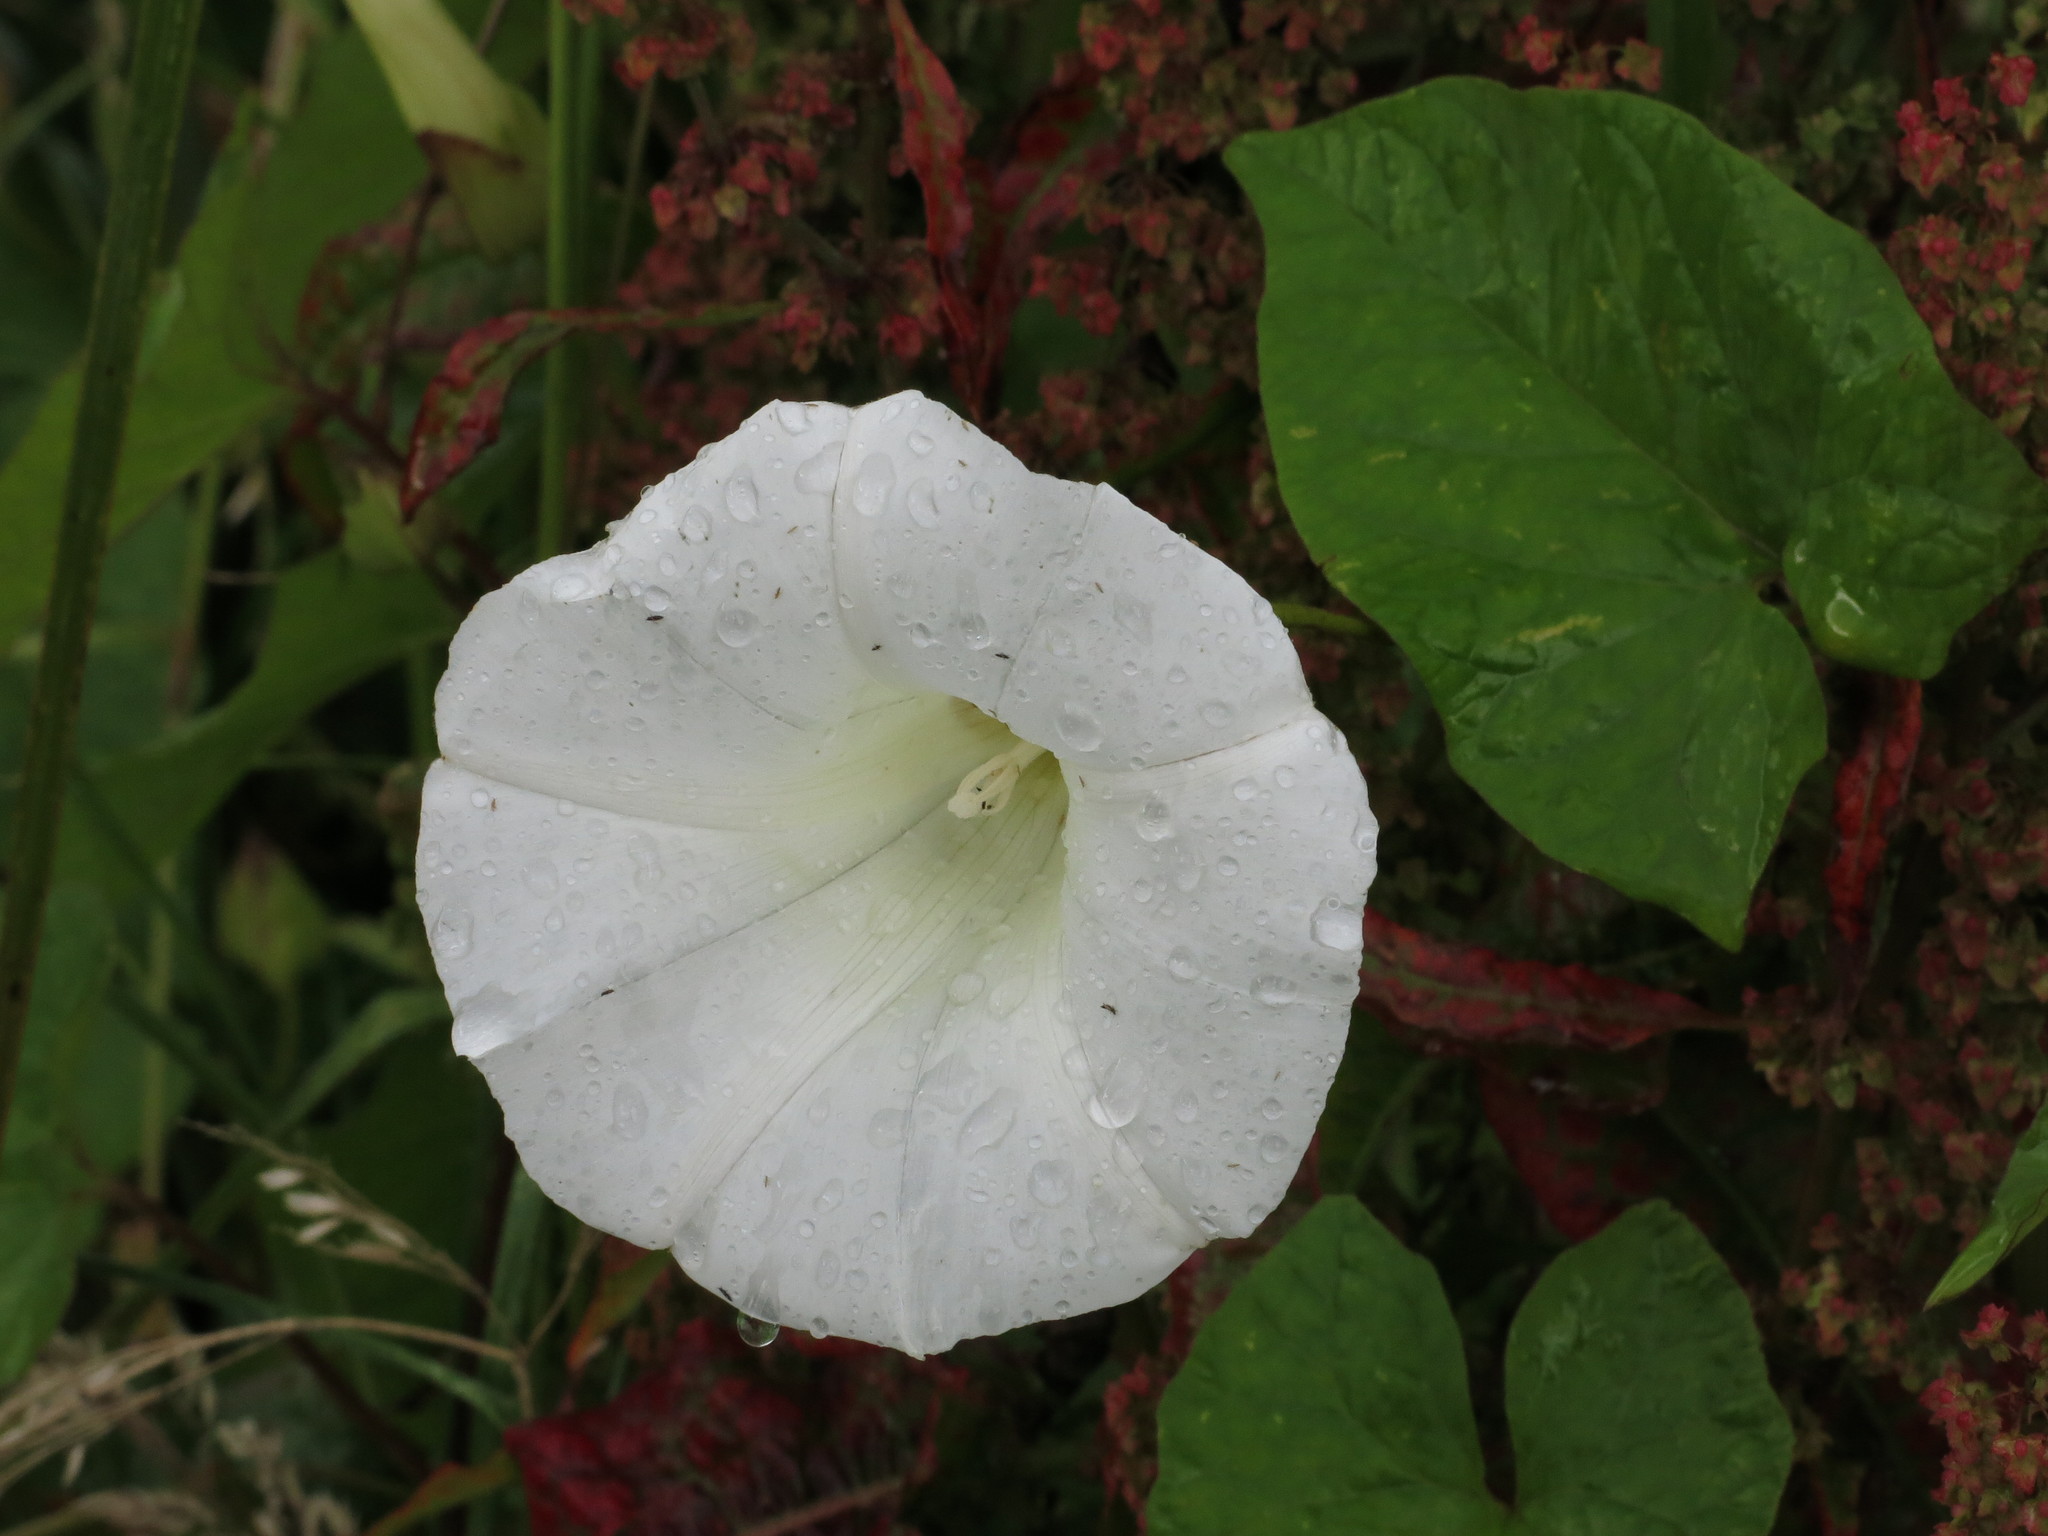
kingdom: Plantae
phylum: Tracheophyta
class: Magnoliopsida
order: Solanales
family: Convolvulaceae
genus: Calystegia
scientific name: Calystegia silvatica
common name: Large bindweed
